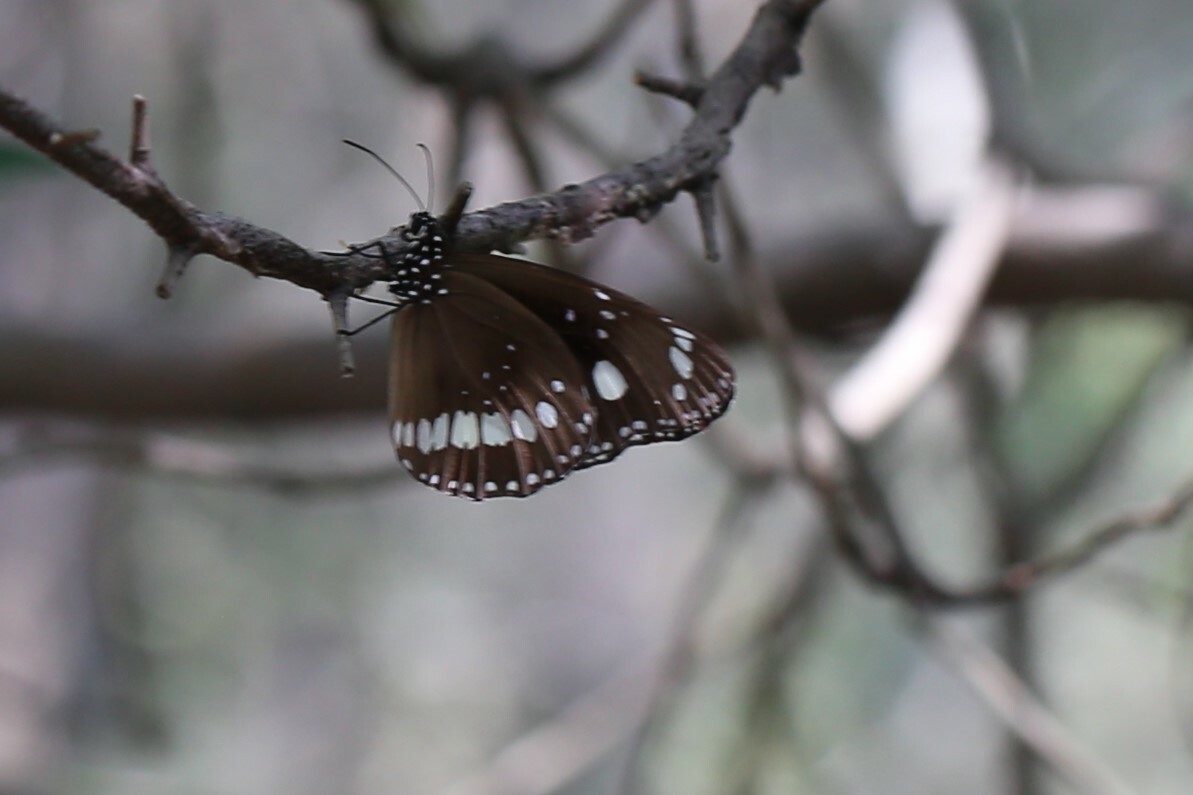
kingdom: Animalia
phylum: Arthropoda
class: Insecta
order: Lepidoptera
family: Nymphalidae
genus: Euploea
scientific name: Euploea core
